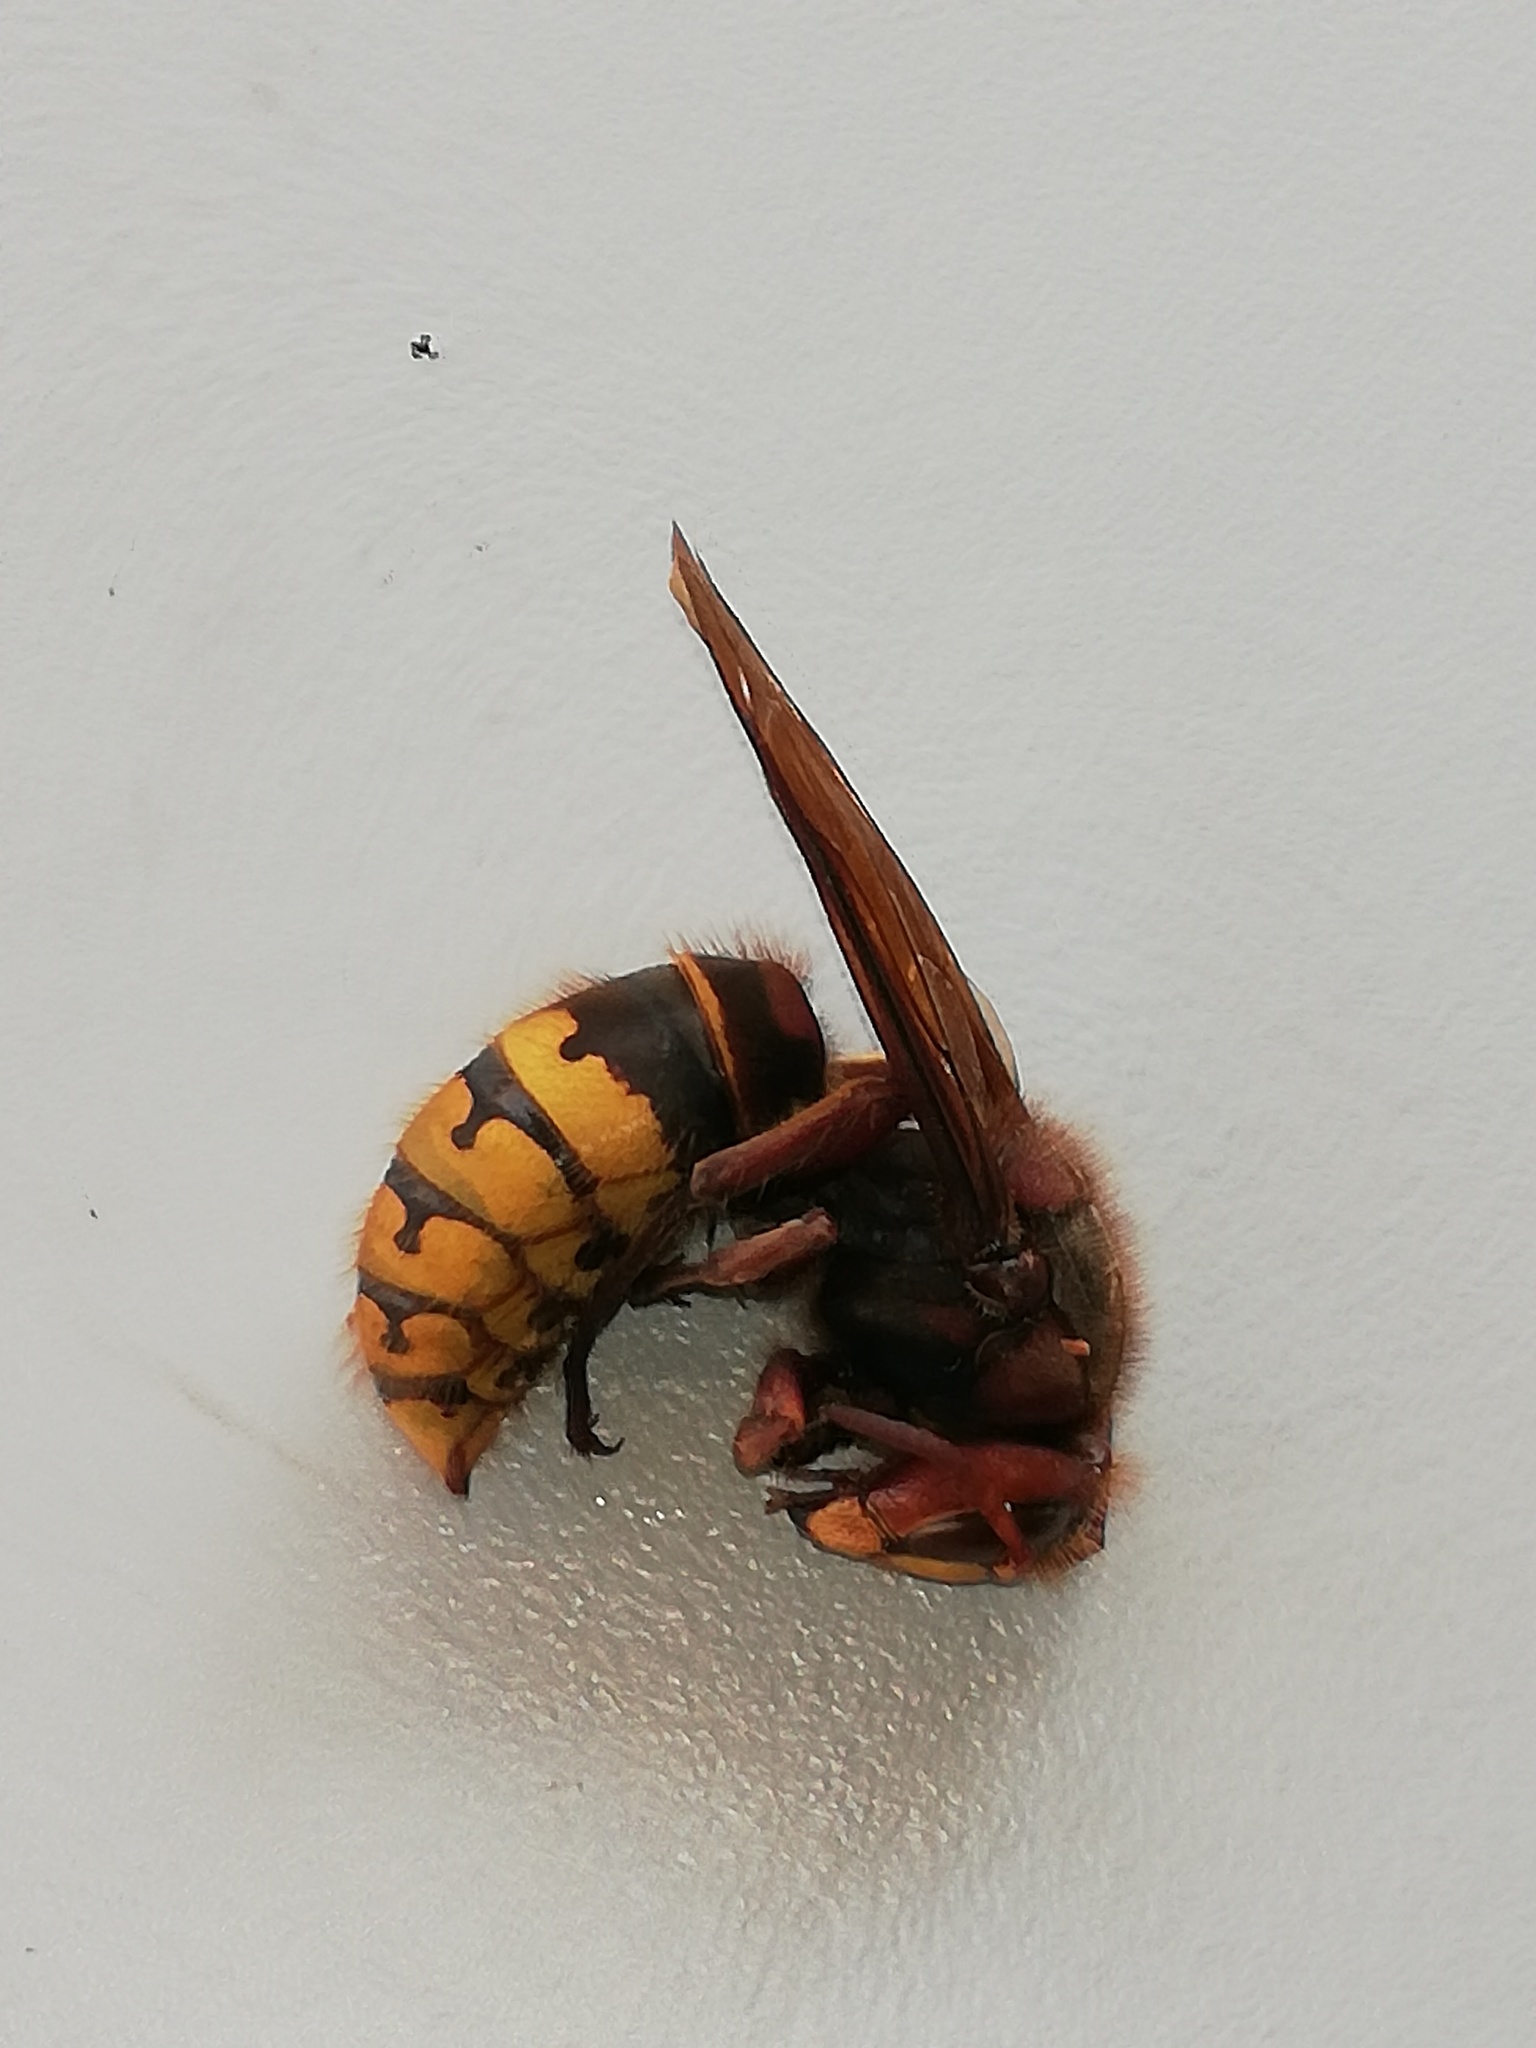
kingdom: Animalia
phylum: Arthropoda
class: Insecta
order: Hymenoptera
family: Vespidae
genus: Vespa
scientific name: Vespa crabro
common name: Hornet
